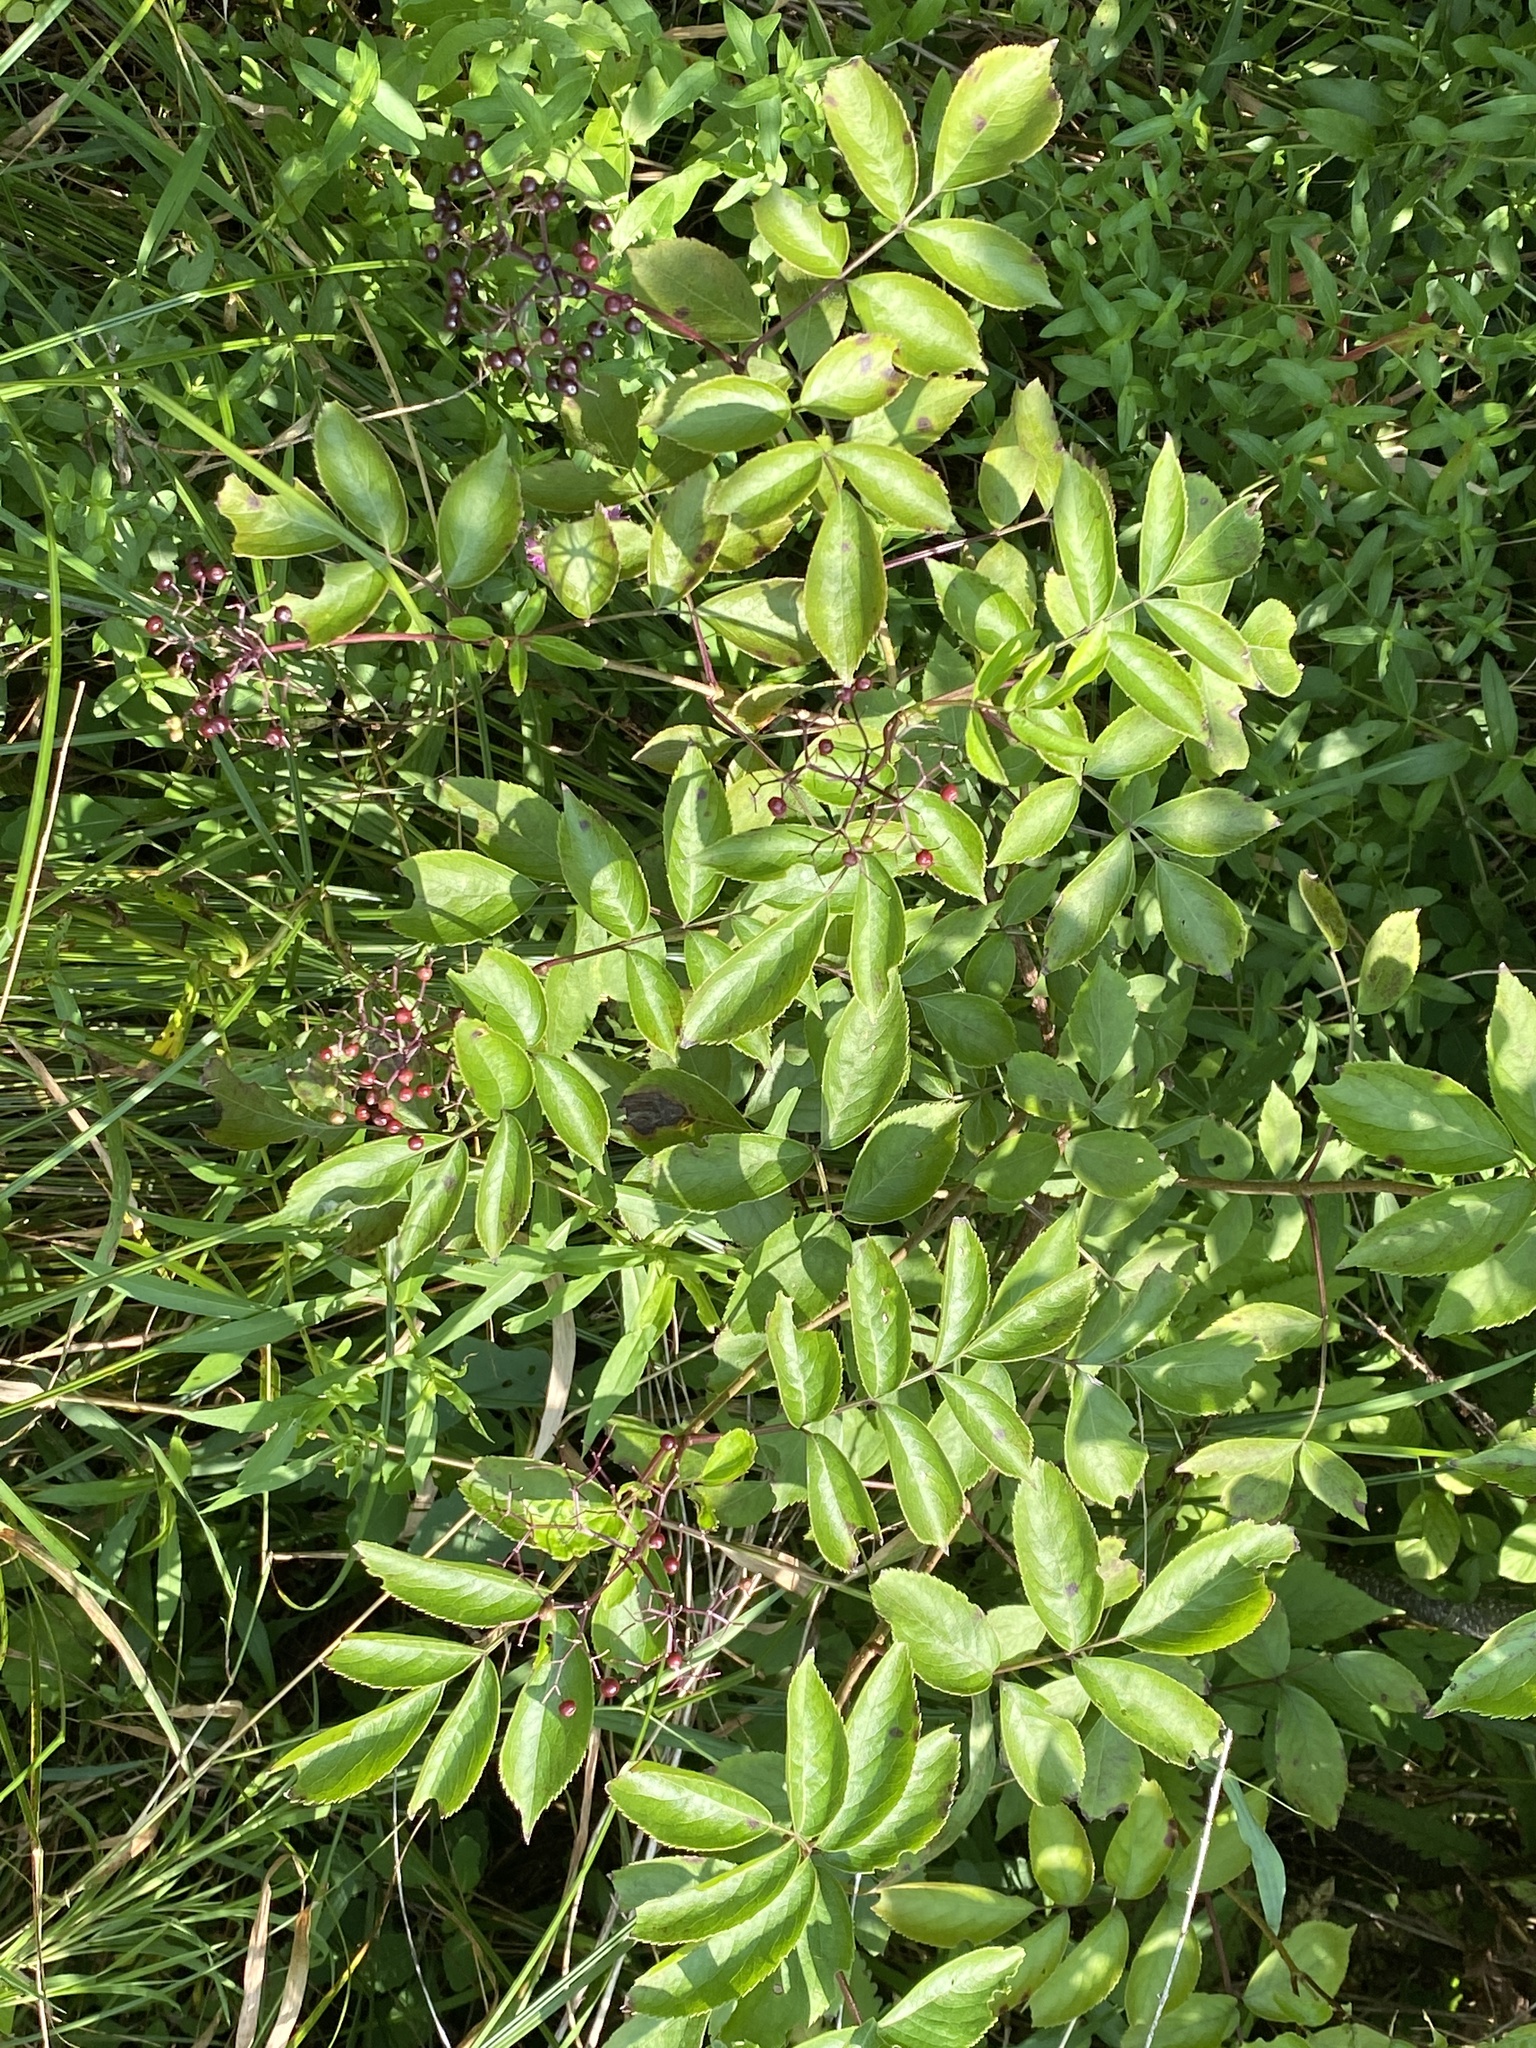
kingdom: Plantae
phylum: Tracheophyta
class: Magnoliopsida
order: Dipsacales
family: Viburnaceae
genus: Sambucus
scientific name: Sambucus canadensis
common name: American elder
